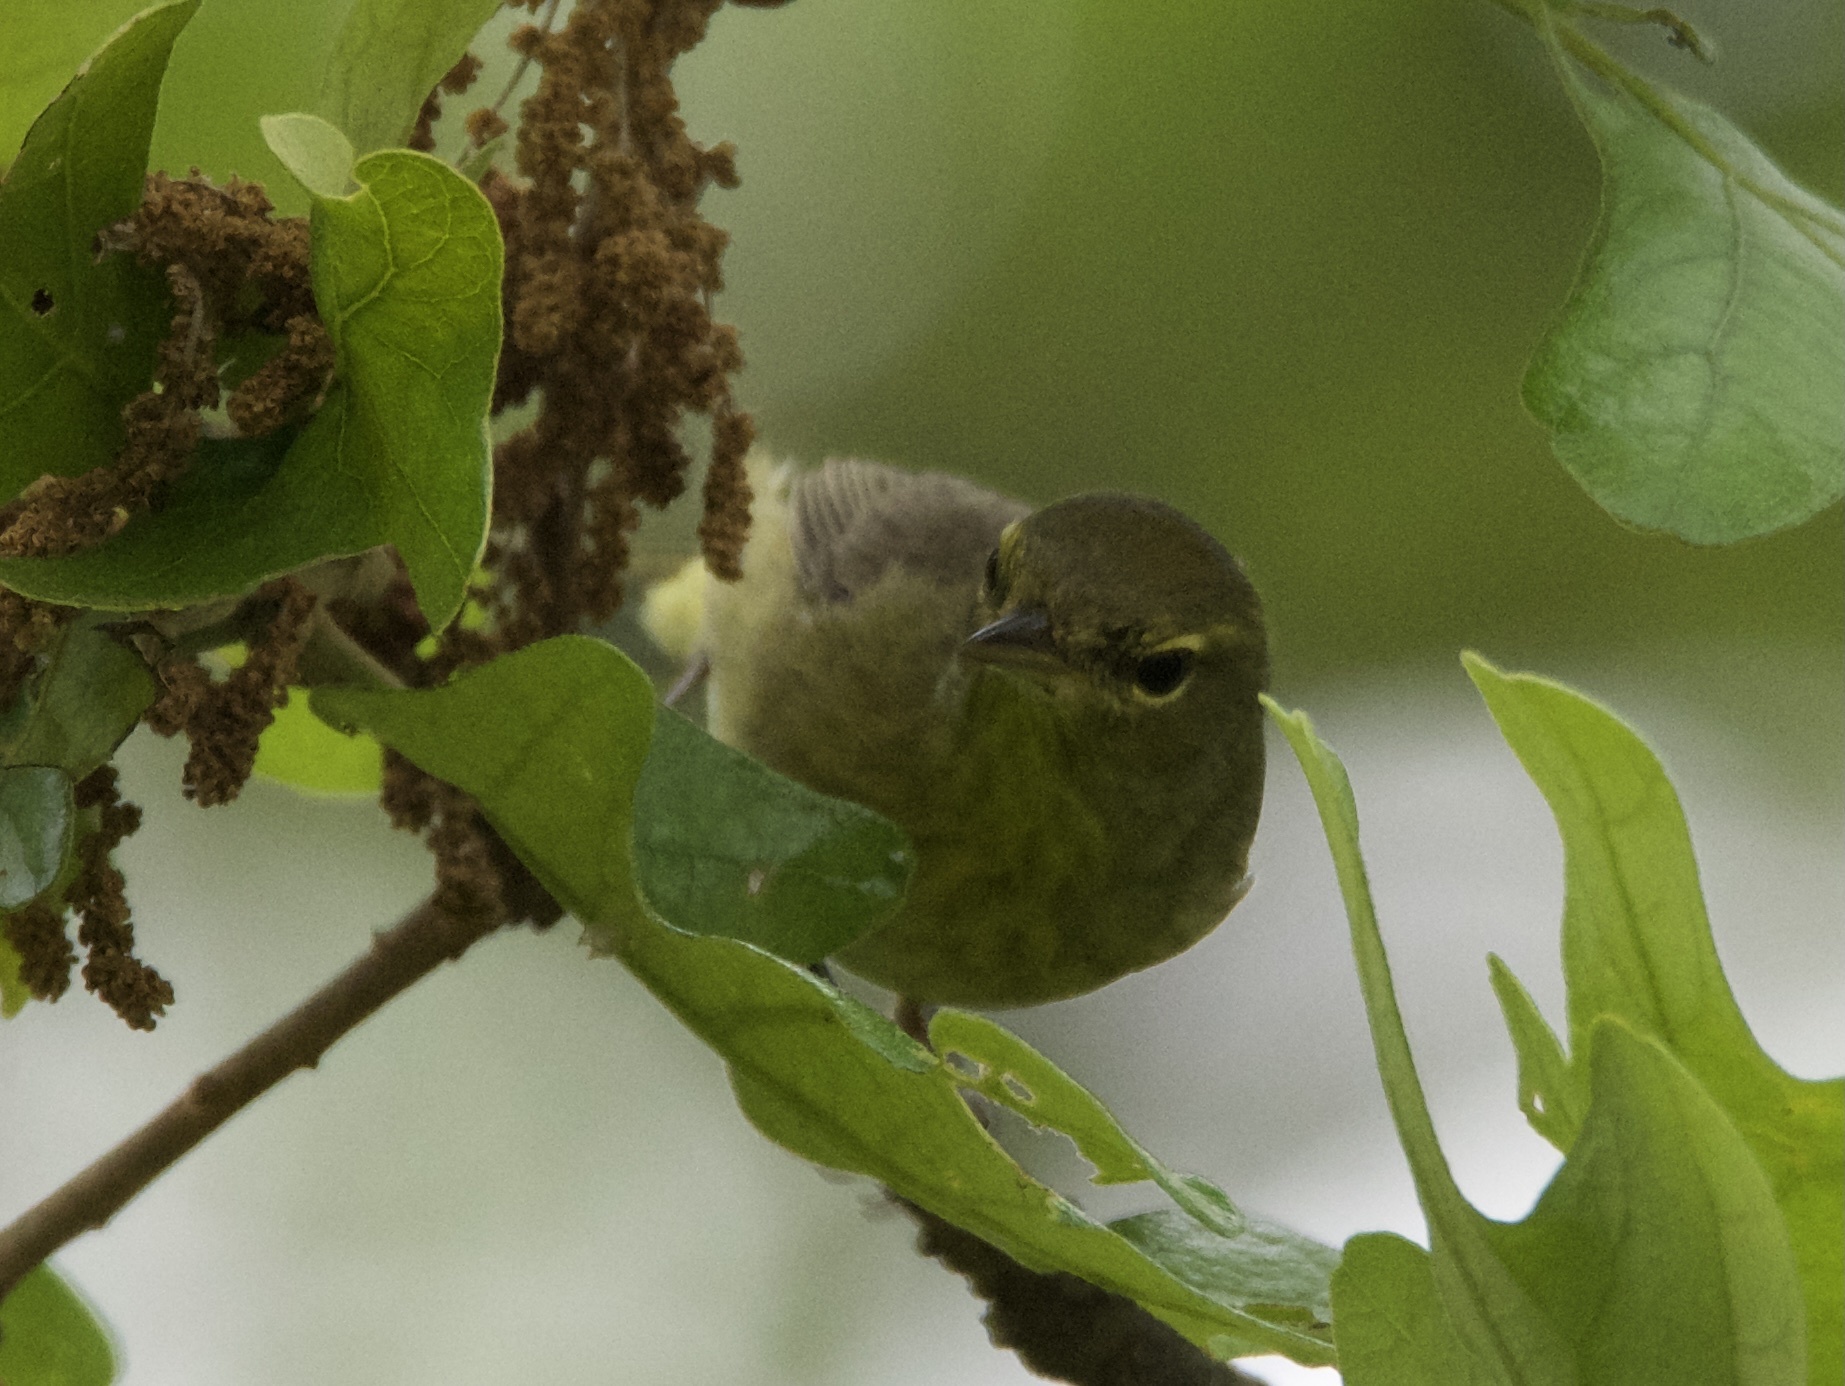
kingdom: Animalia
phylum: Chordata
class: Aves
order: Passeriformes
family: Parulidae
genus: Leiothlypis
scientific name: Leiothlypis celata
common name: Orange-crowned warbler
